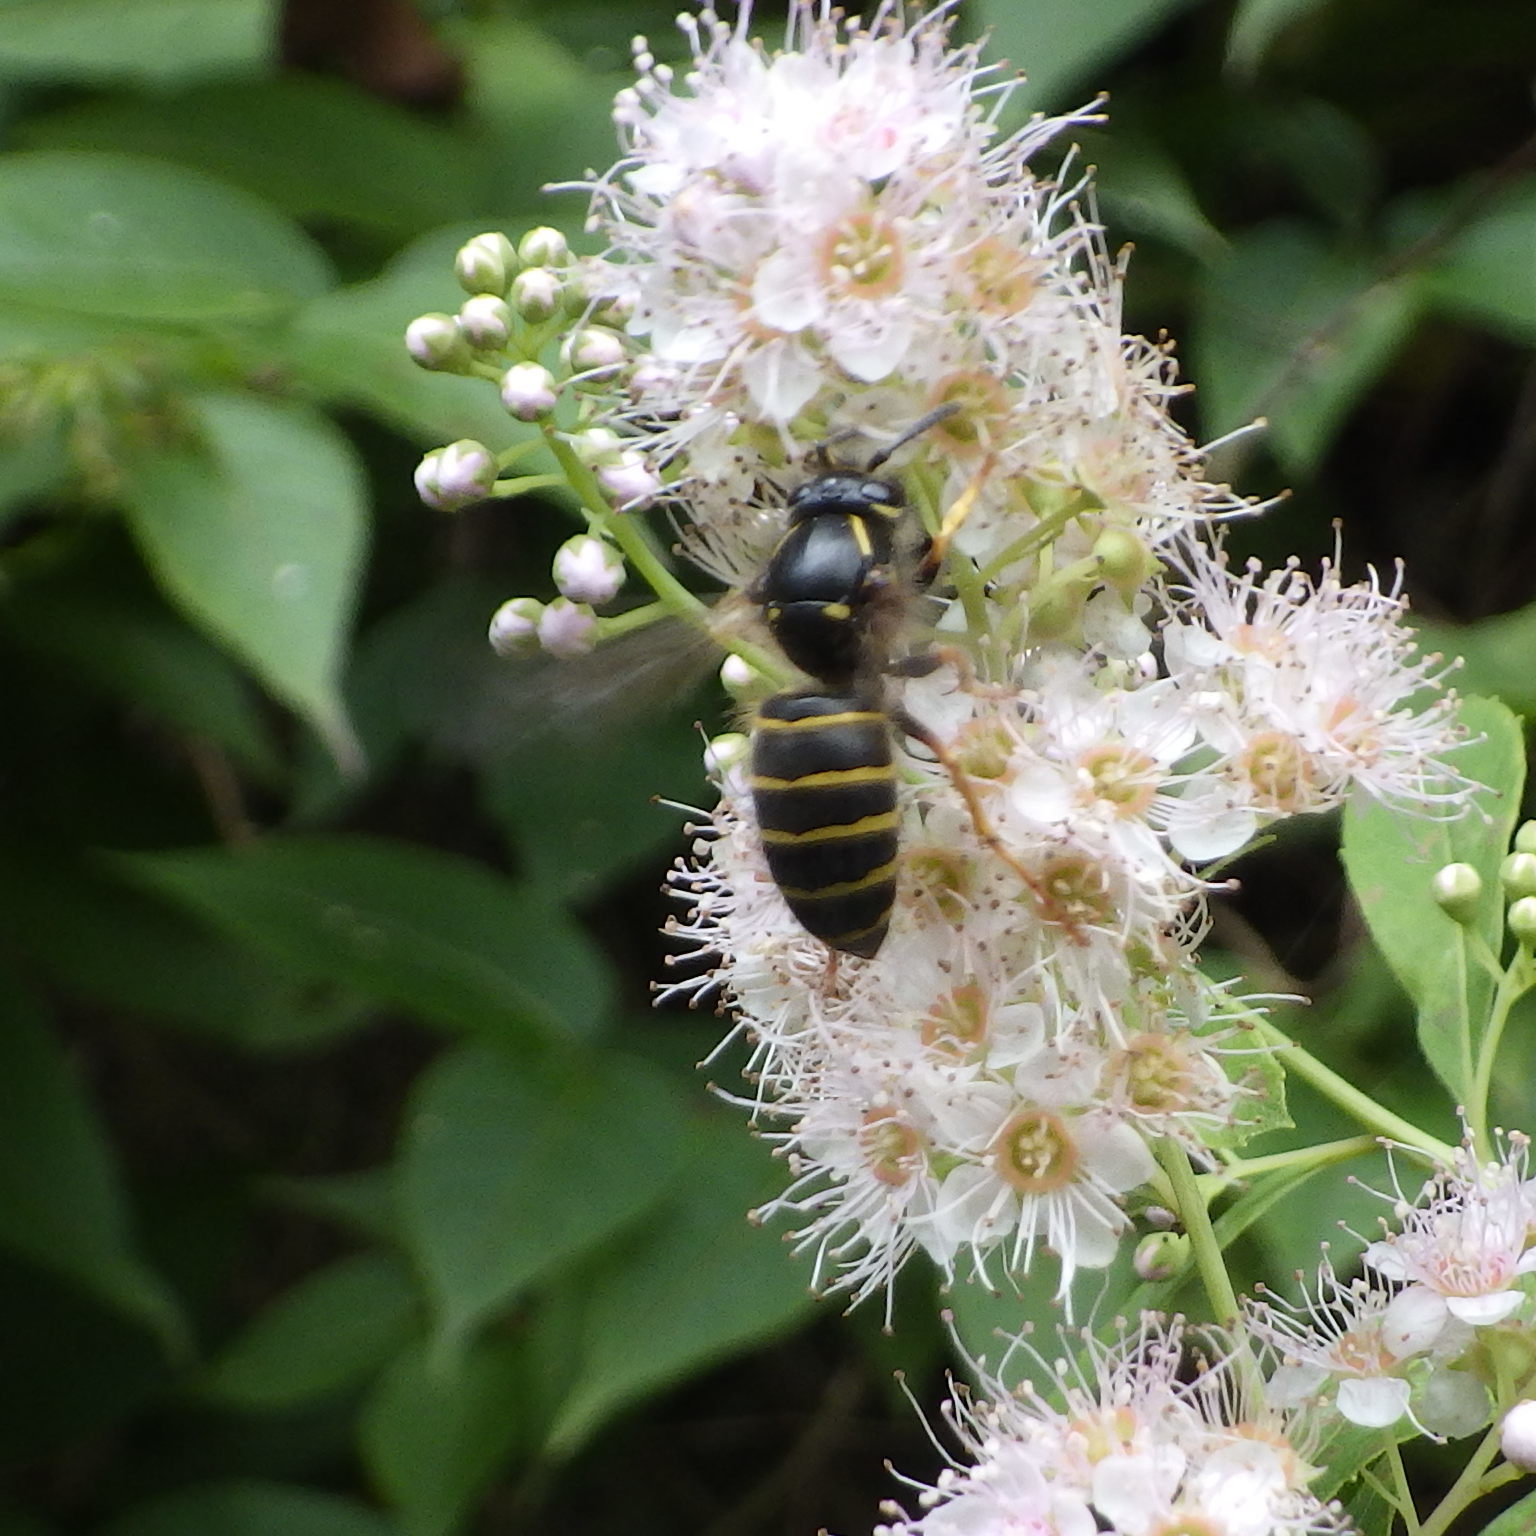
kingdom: Animalia
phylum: Arthropoda
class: Insecta
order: Hymenoptera
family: Vespidae
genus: Dolichovespula
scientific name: Dolichovespula norvegicoides
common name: Northern aerial yellowjacket
